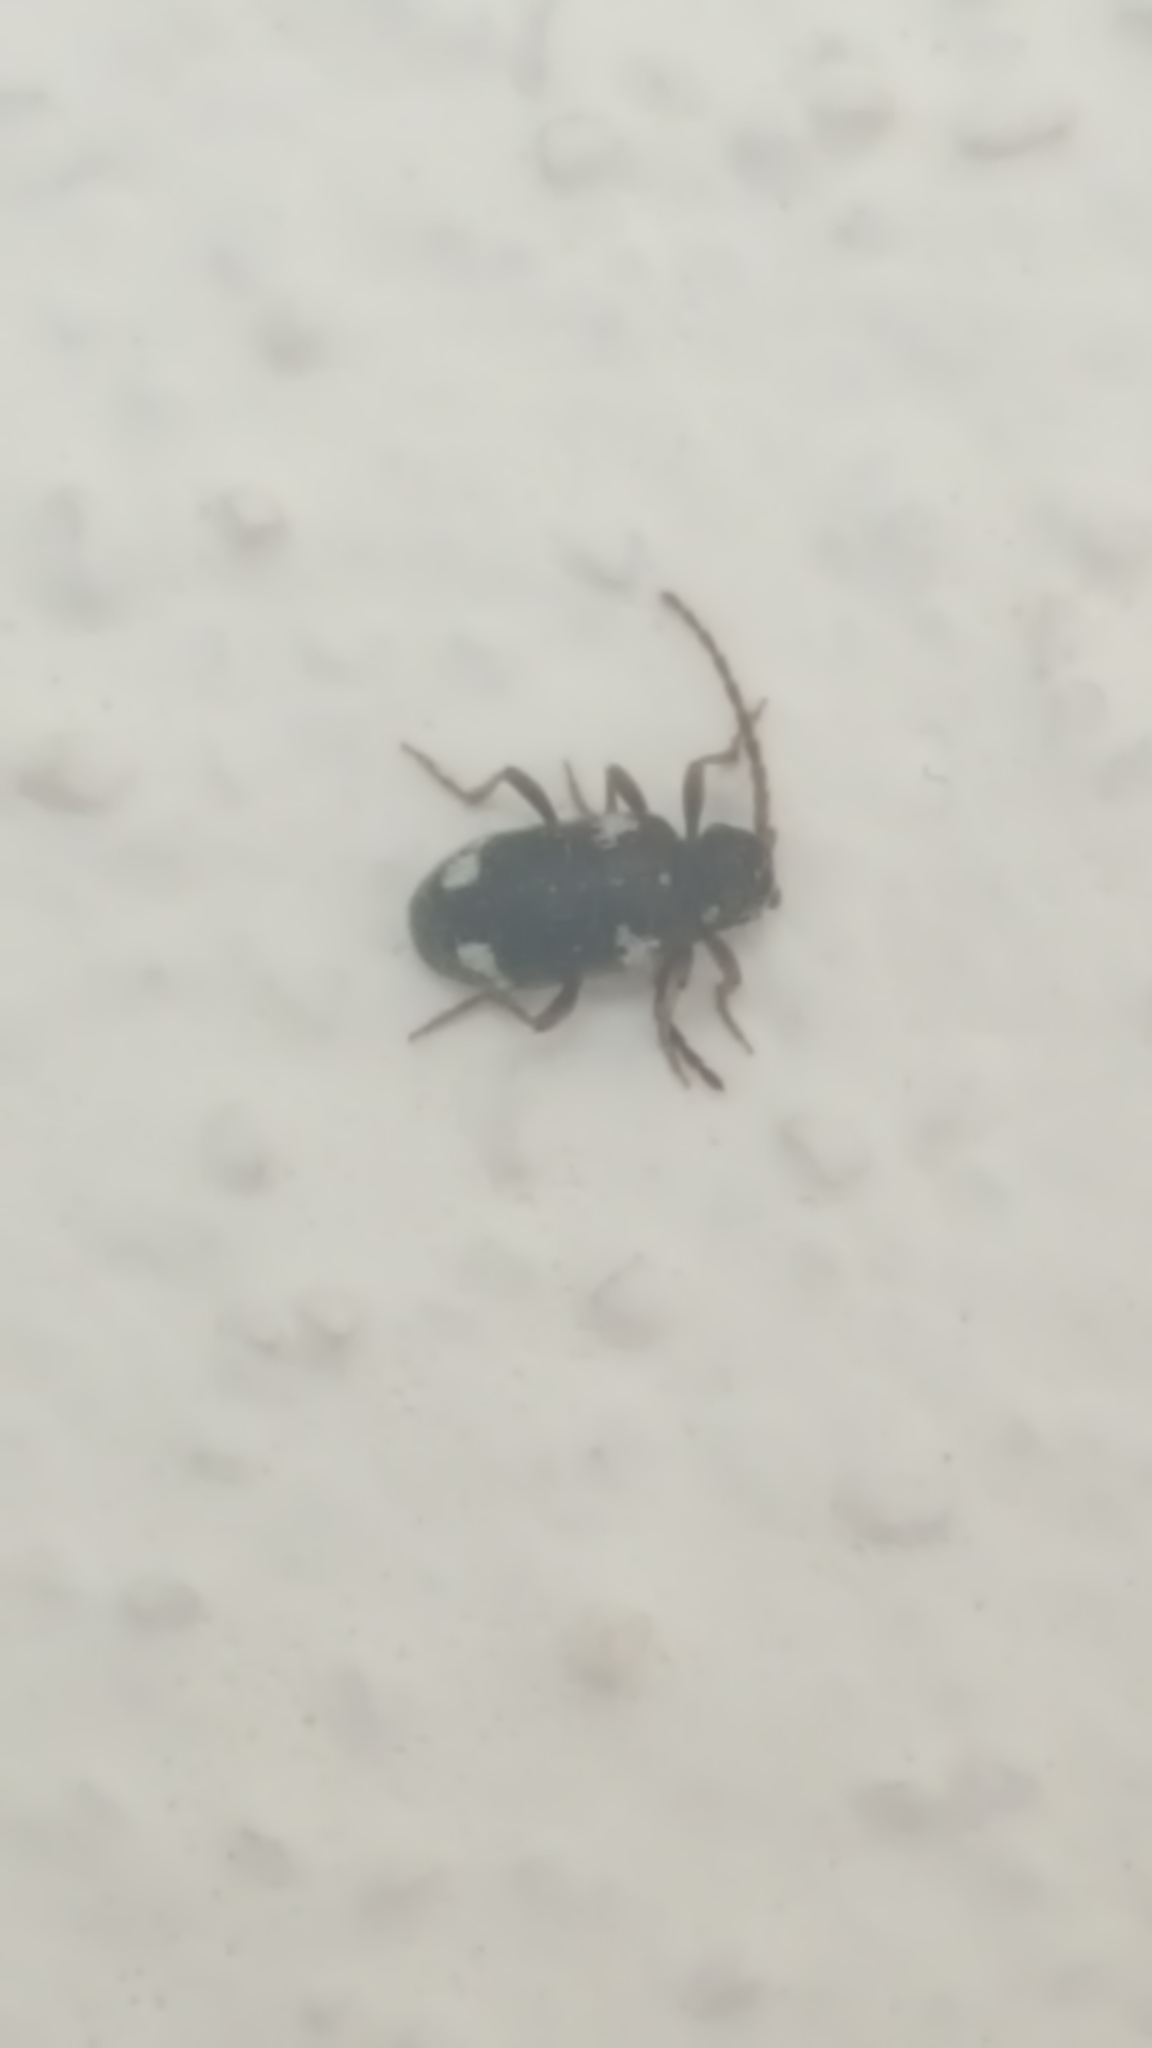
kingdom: Animalia
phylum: Arthropoda
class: Insecta
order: Coleoptera
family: Ptinidae
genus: Ptinus
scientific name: Ptinus sexpunctatus
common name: Six-spotted spider beetle
